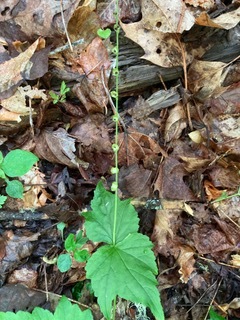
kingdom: Plantae
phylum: Tracheophyta
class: Magnoliopsida
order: Saxifragales
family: Saxifragaceae
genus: Mitella
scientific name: Mitella diphylla
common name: Coolwort
